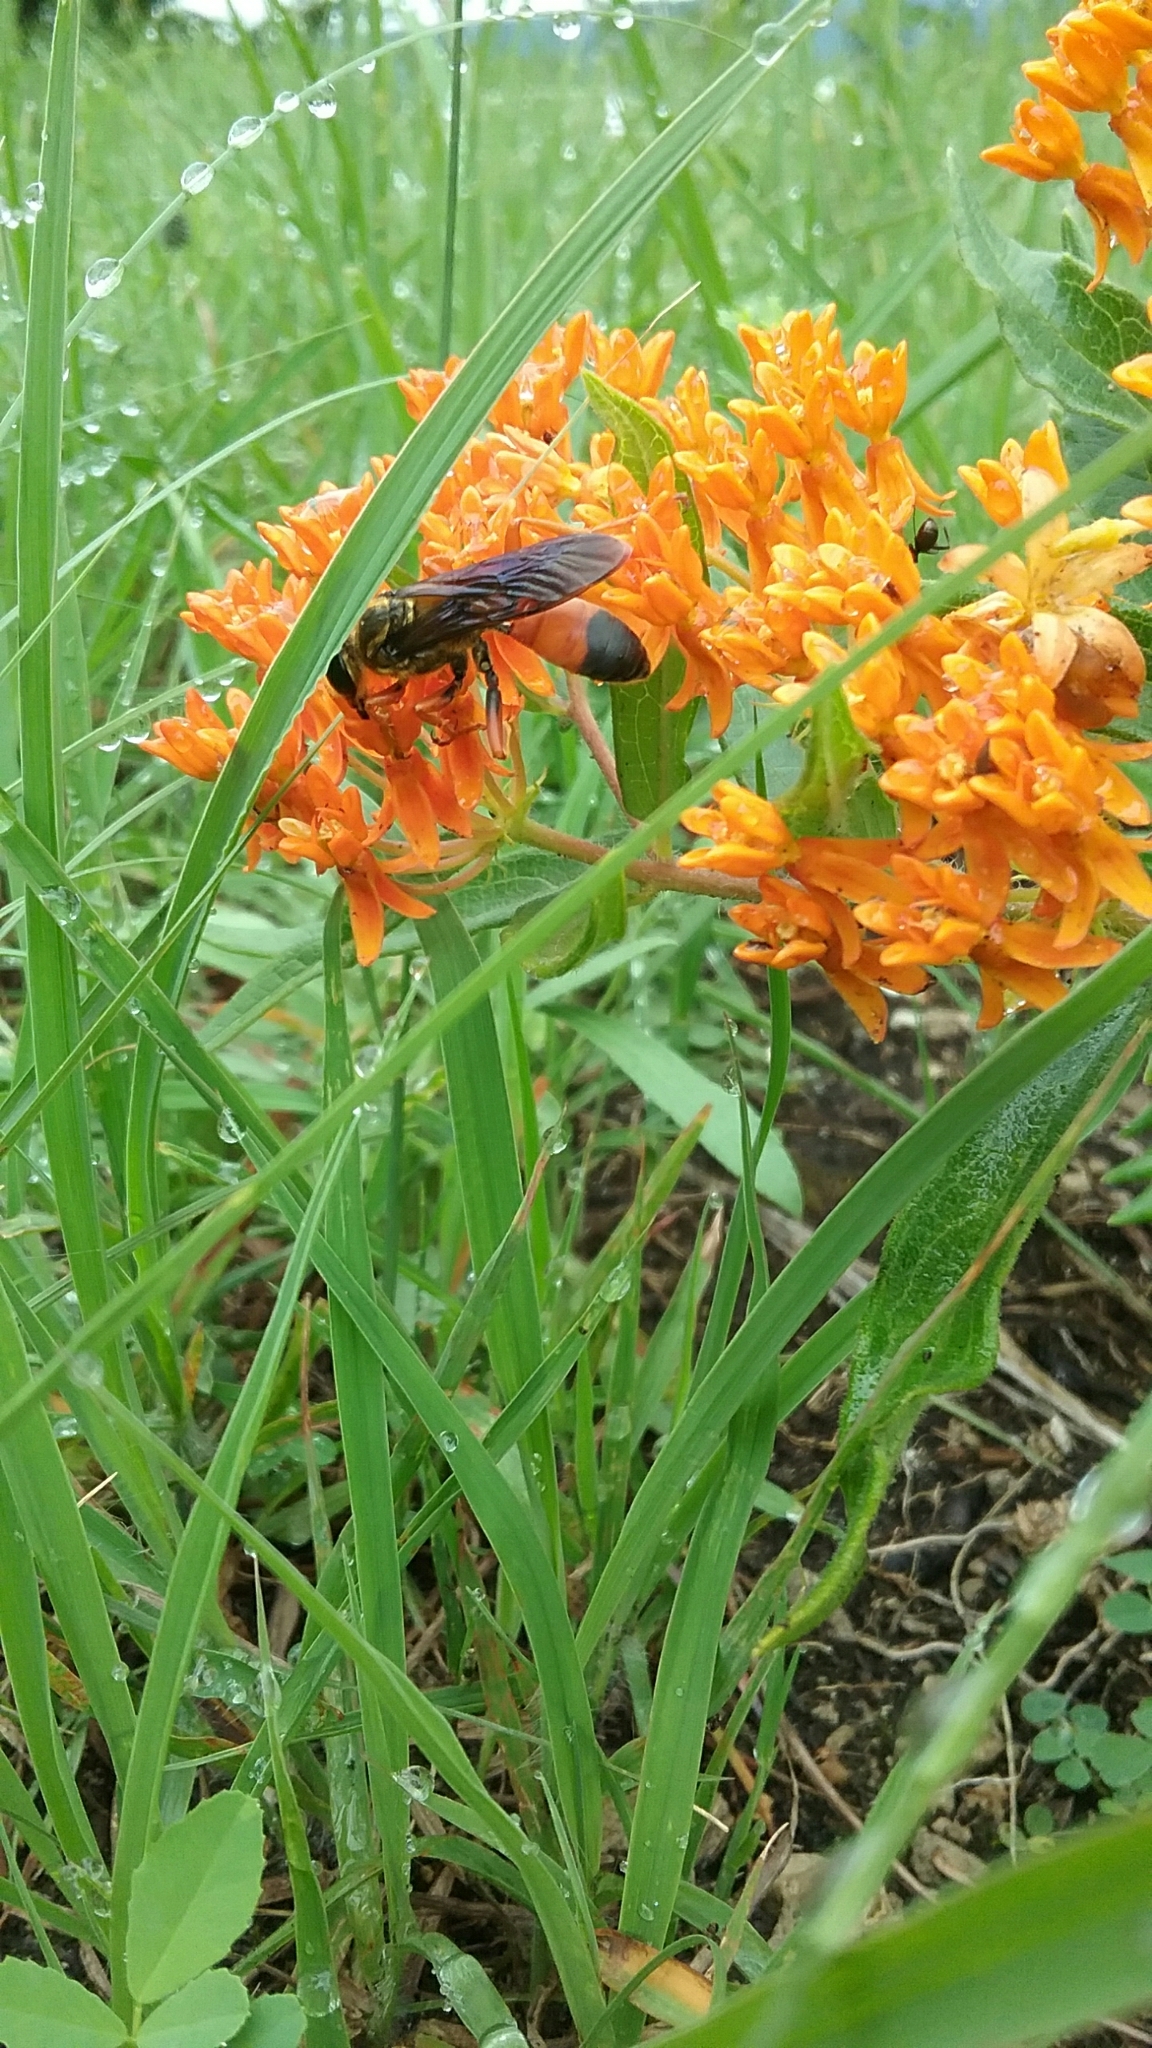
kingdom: Animalia
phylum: Arthropoda
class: Insecta
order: Hymenoptera
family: Sphecidae
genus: Sphex
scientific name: Sphex ichneumoneus
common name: Great golden digger wasp
